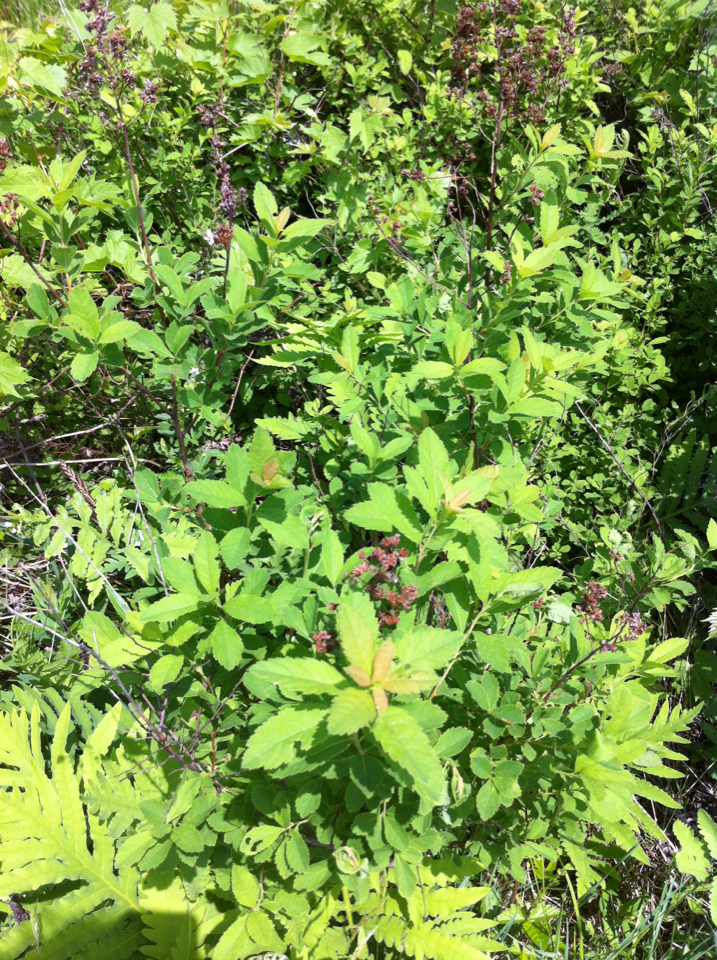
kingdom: Plantae
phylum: Tracheophyta
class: Magnoliopsida
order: Rosales
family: Rosaceae
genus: Spiraea
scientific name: Spiraea alba
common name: Pale bridewort
